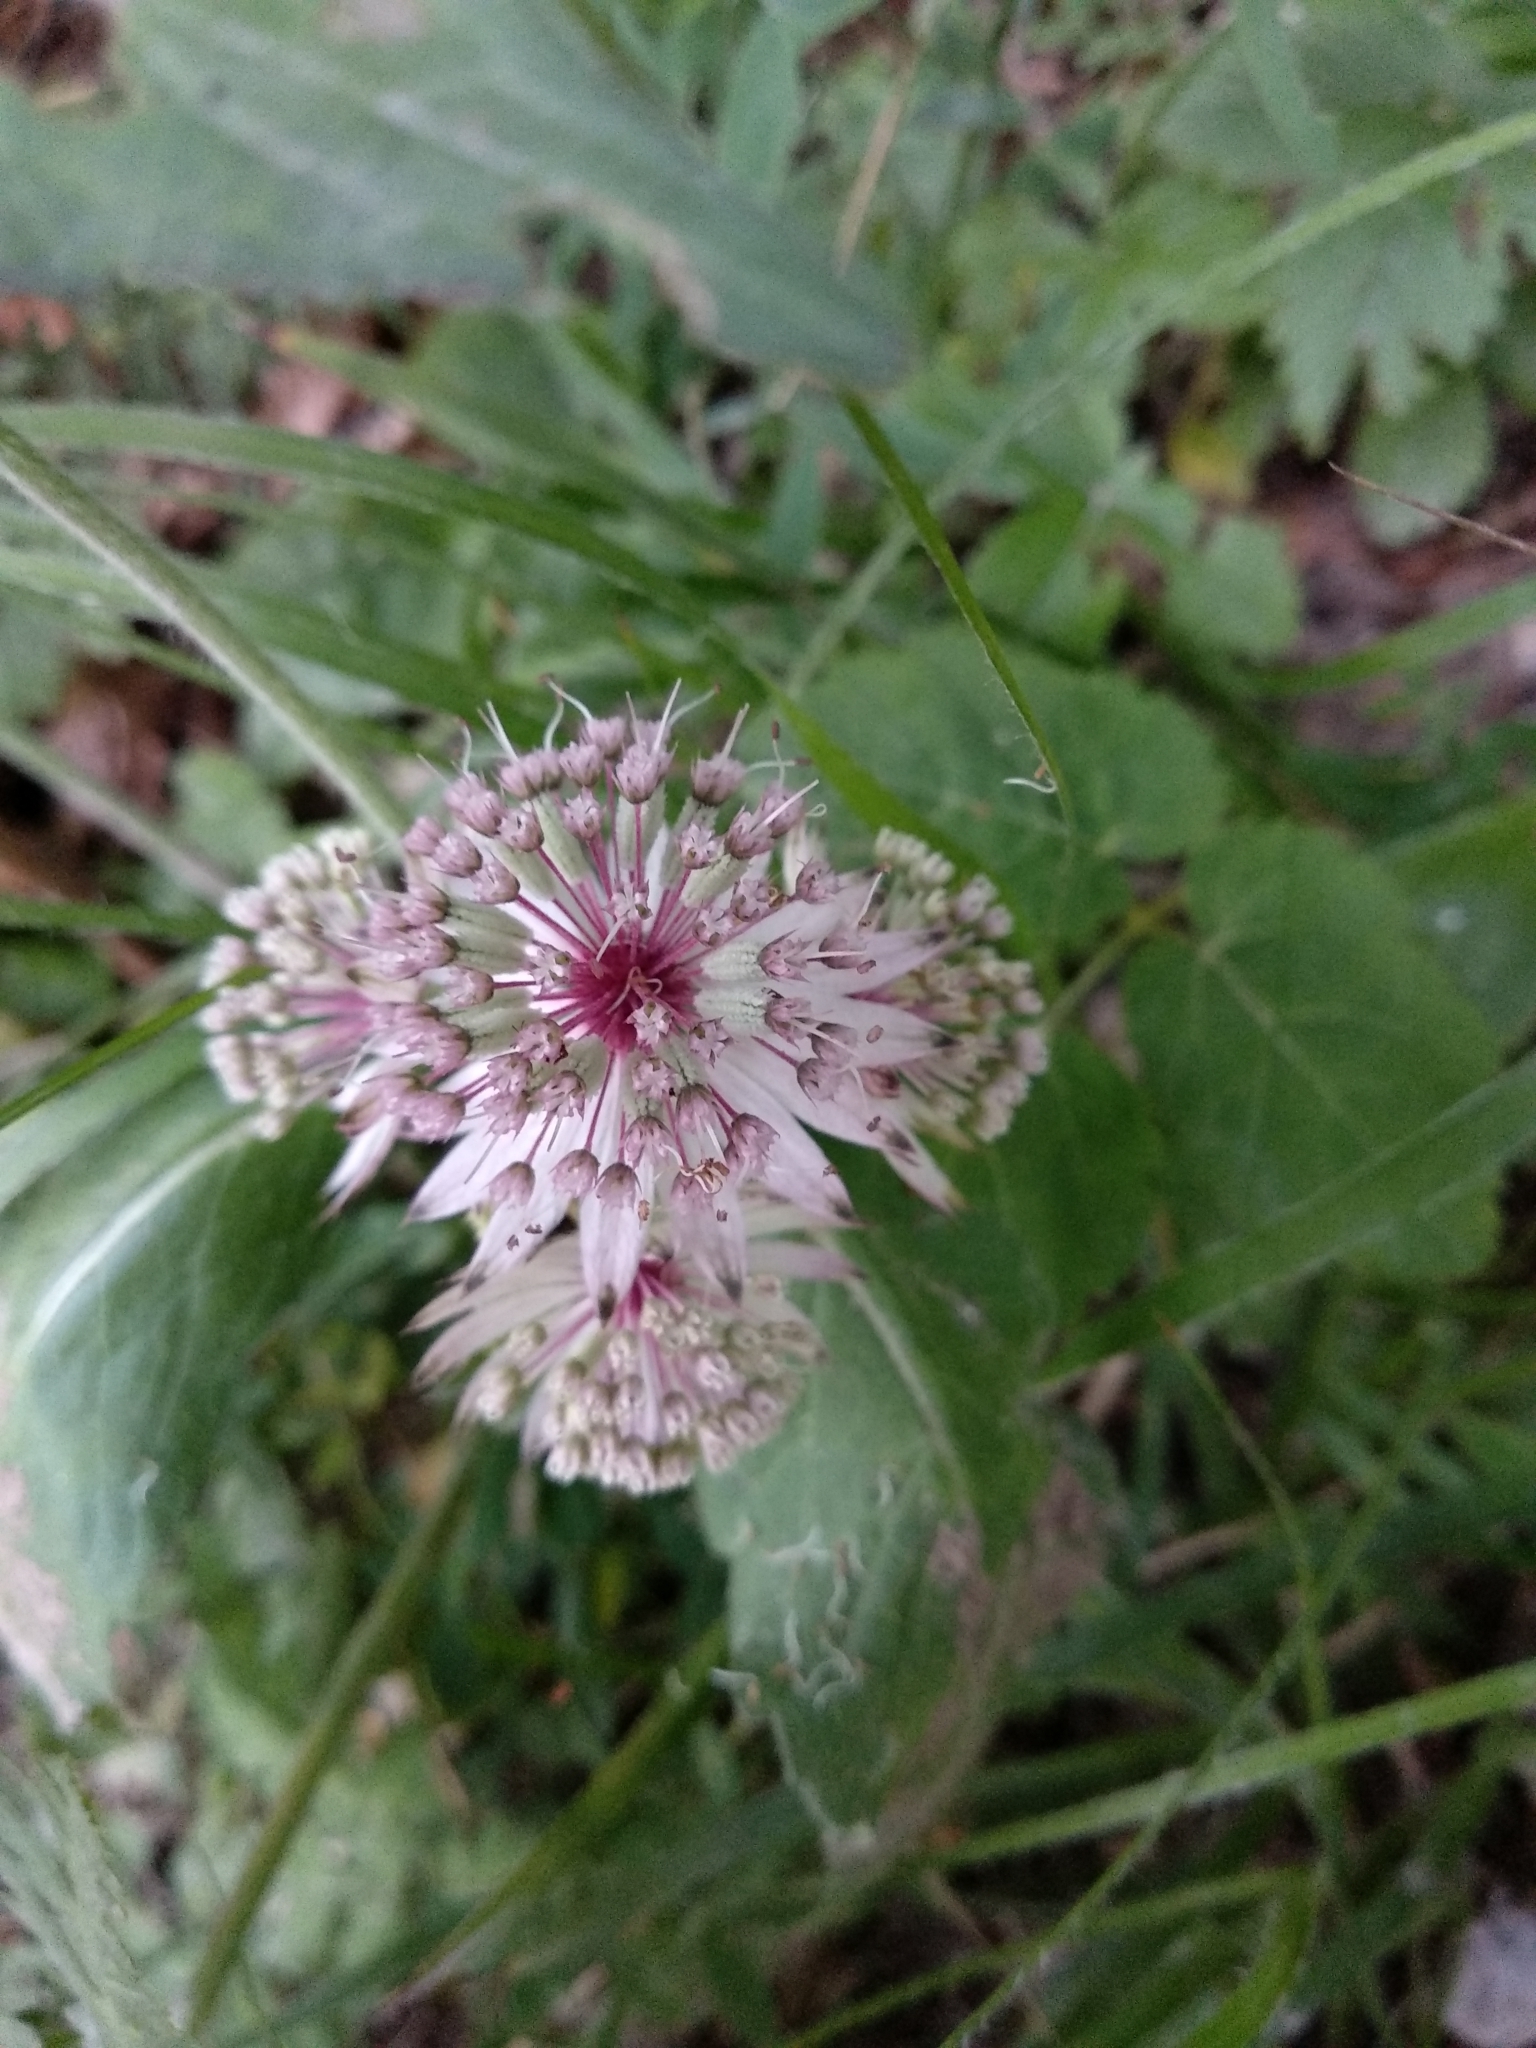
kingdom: Plantae
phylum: Tracheophyta
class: Magnoliopsida
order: Apiales
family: Apiaceae
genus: Astrantia
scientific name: Astrantia major
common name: Greater masterwort
